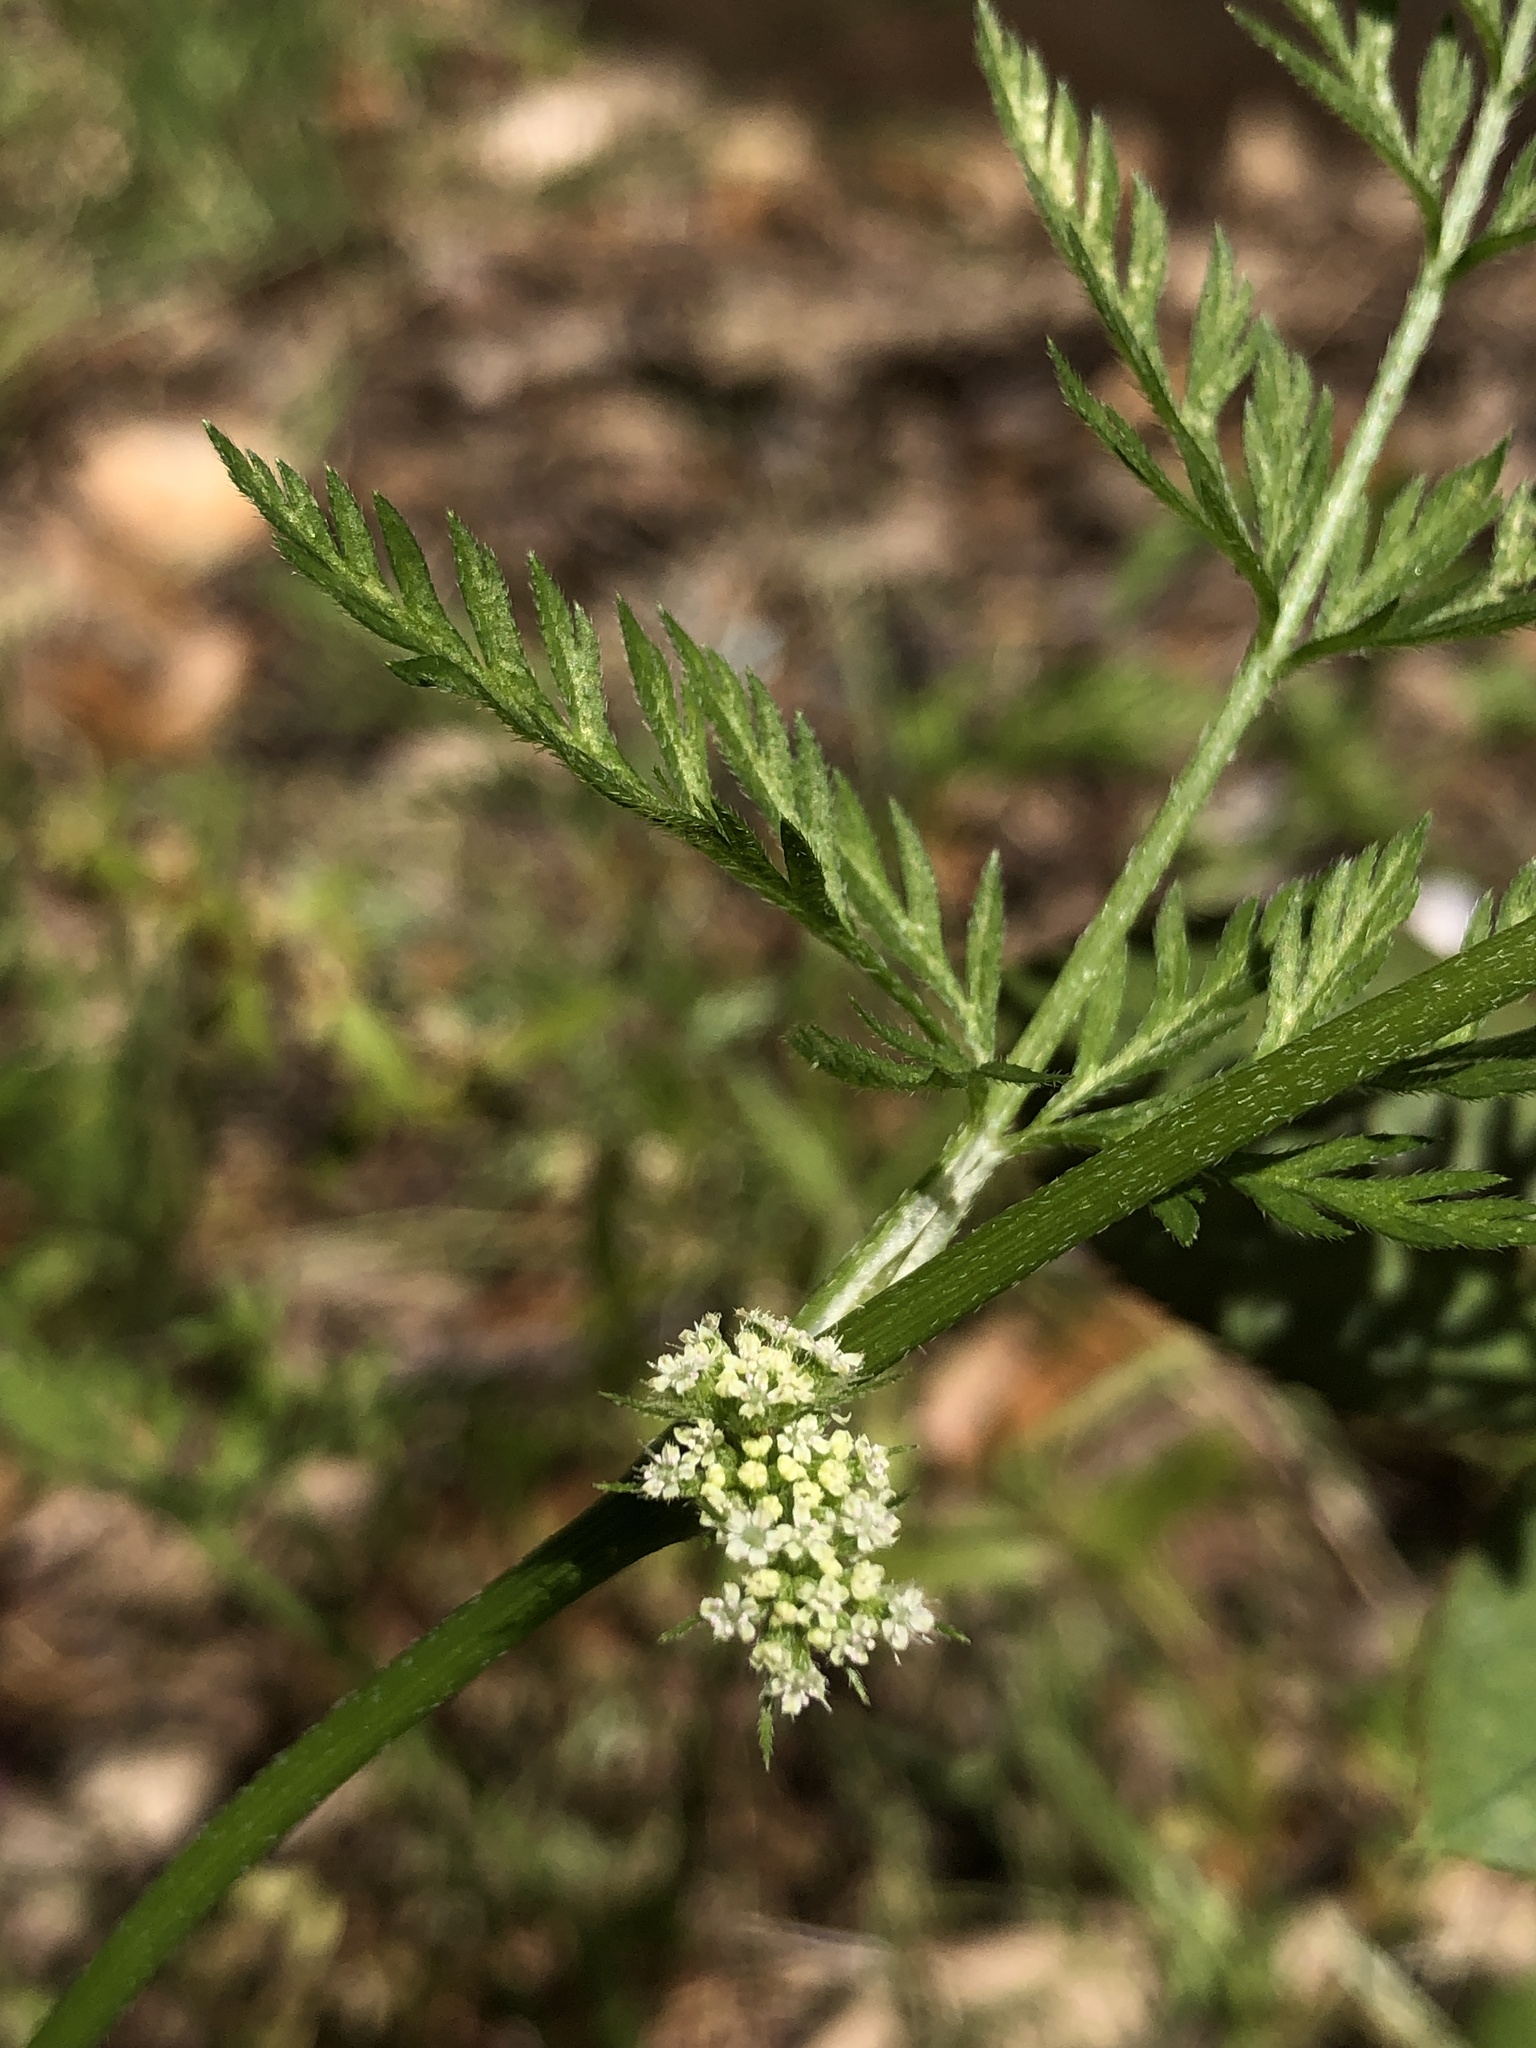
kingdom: Plantae
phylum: Tracheophyta
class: Magnoliopsida
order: Apiales
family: Apiaceae
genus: Torilis
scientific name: Torilis nodosa
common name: Knotted hedge-parsley
